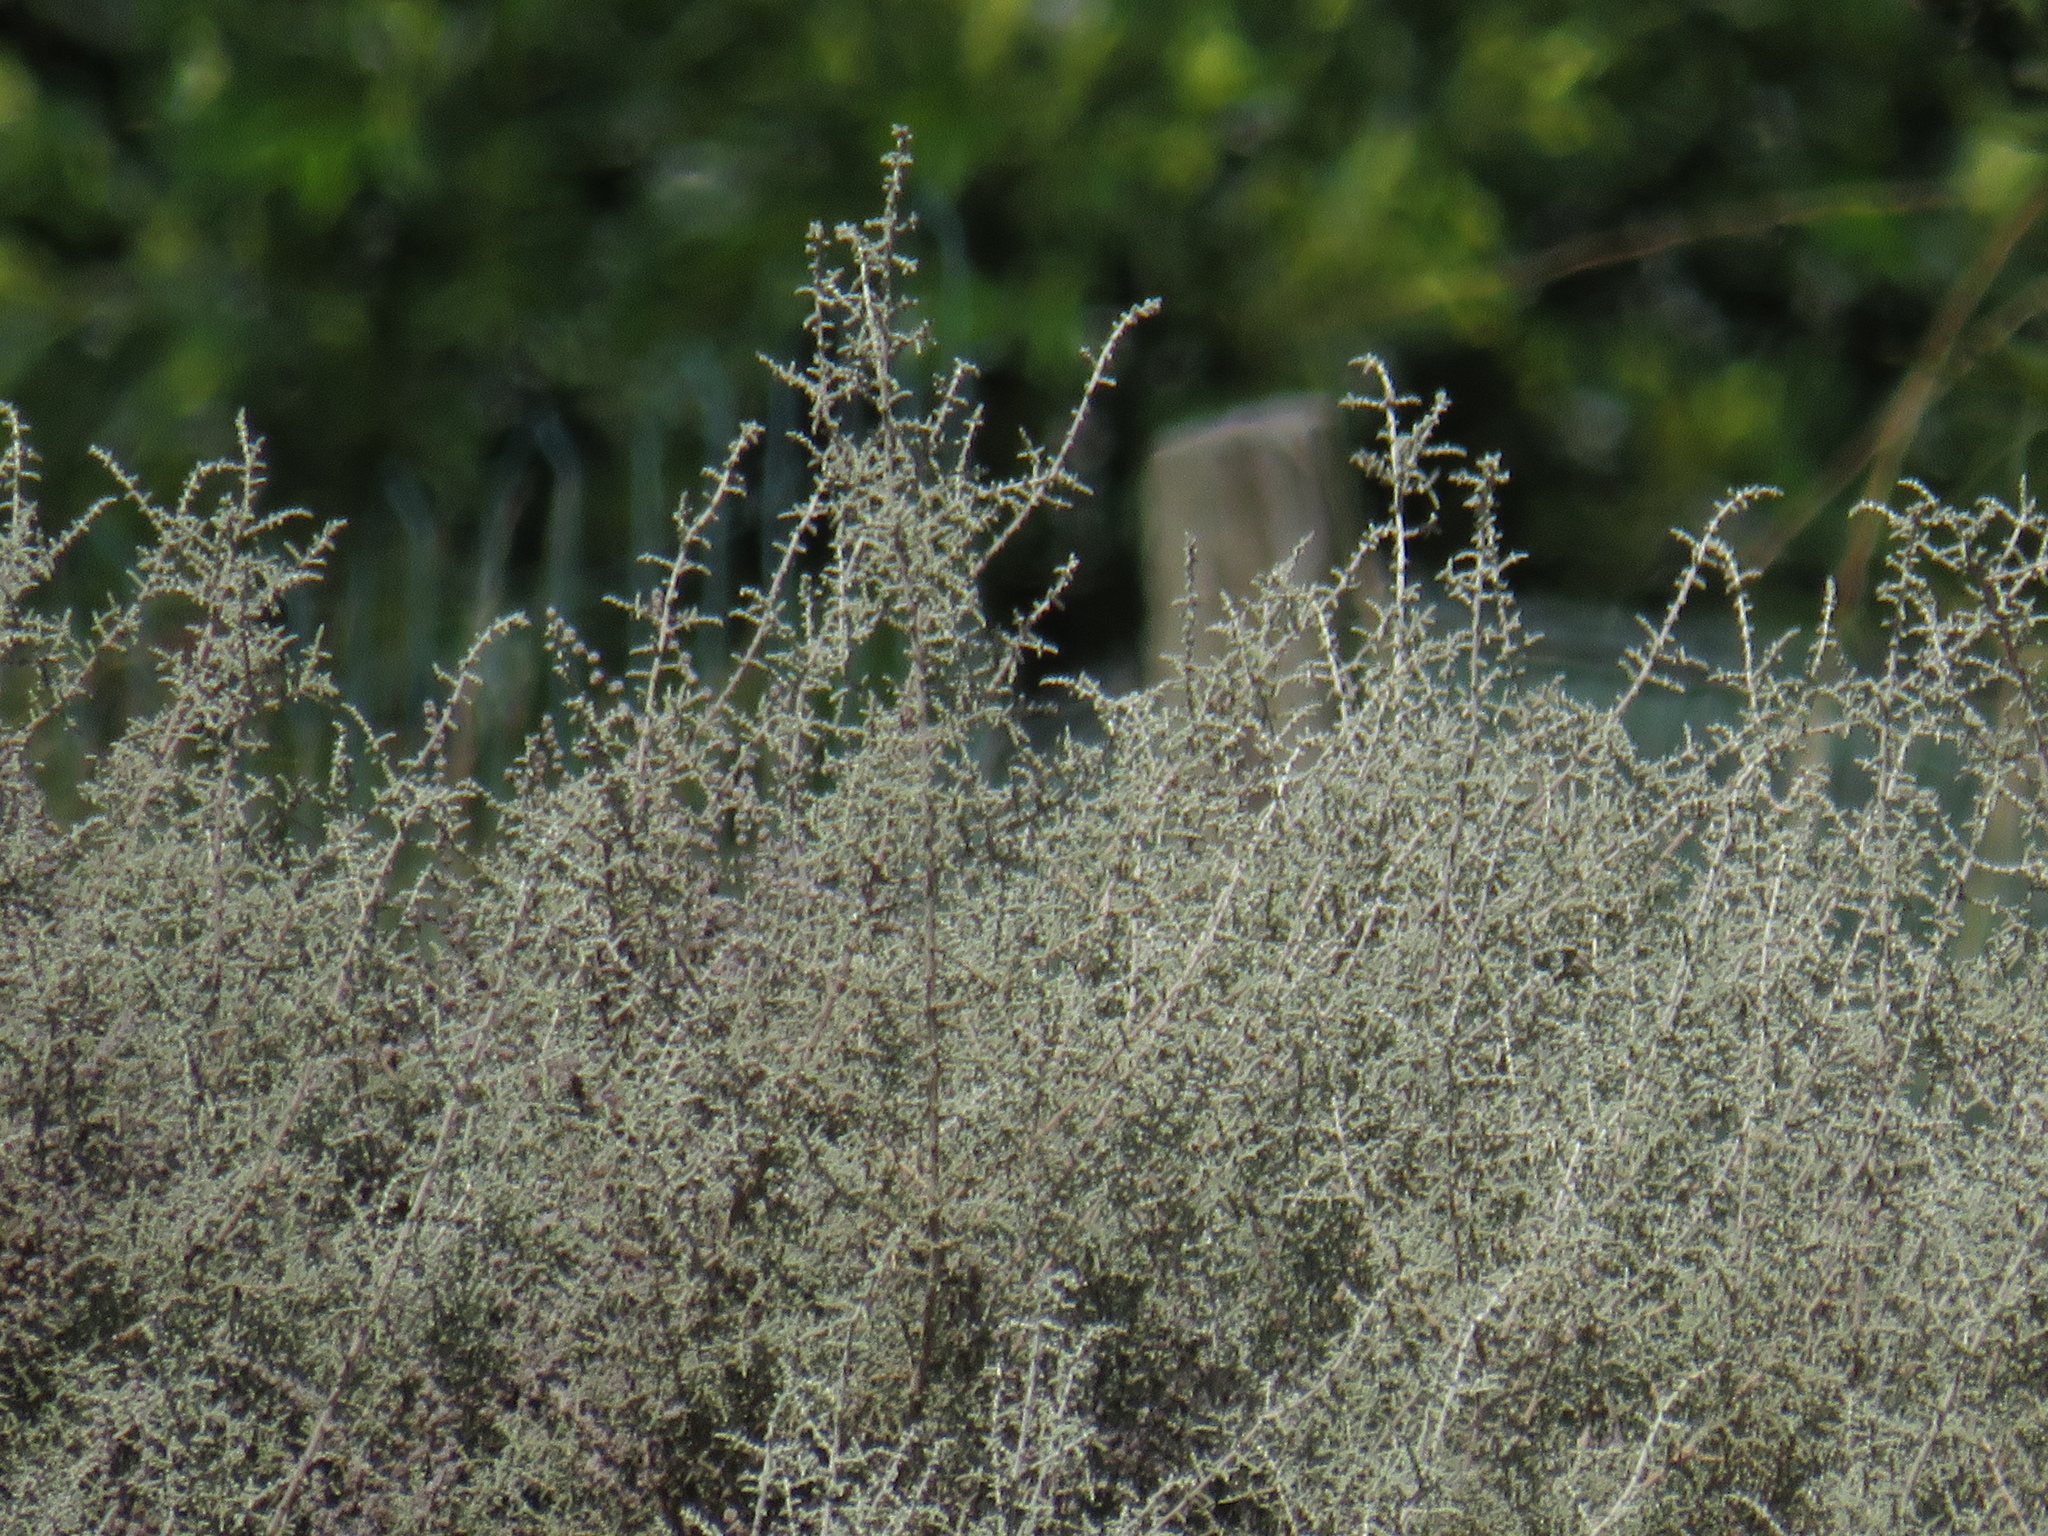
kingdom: Plantae
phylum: Tracheophyta
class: Magnoliopsida
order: Asterales
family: Asteraceae
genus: Seriphium
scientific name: Seriphium plumosum
